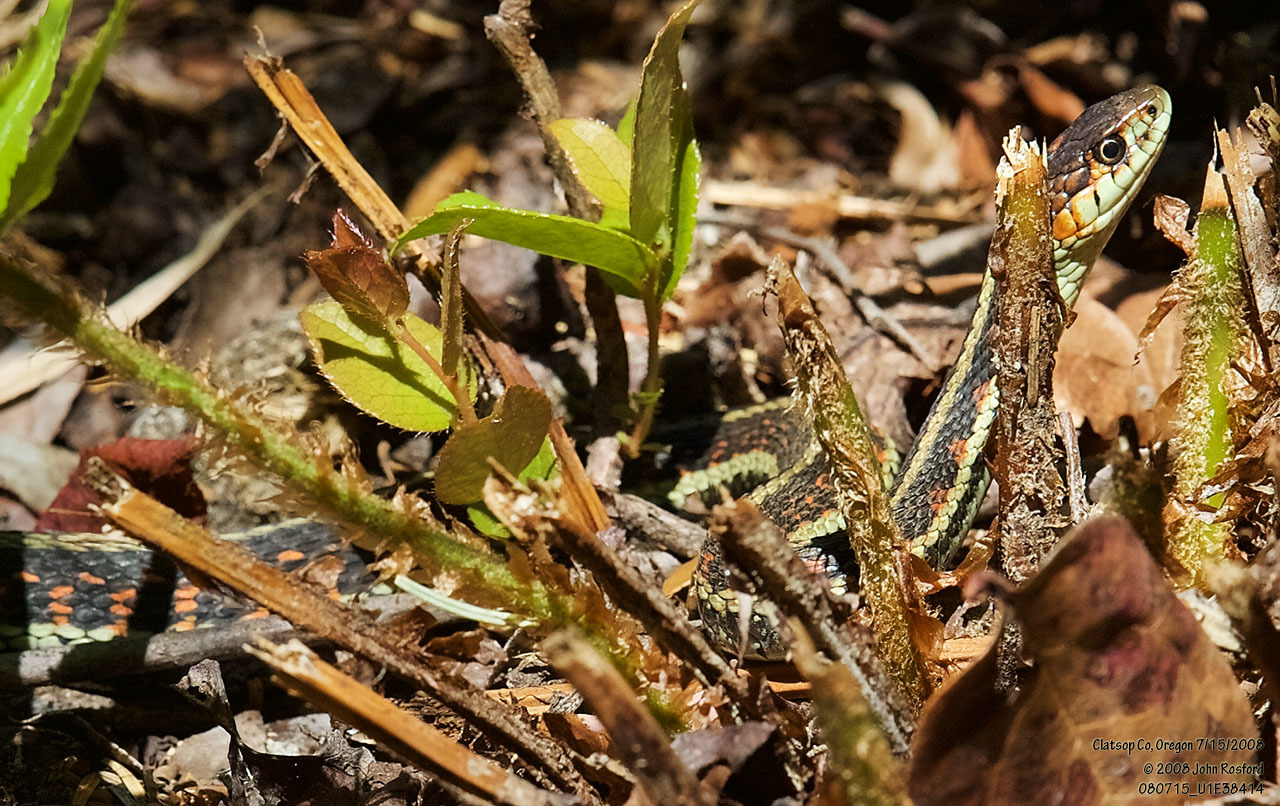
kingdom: Animalia
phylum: Chordata
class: Squamata
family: Colubridae
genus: Thamnophis
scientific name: Thamnophis sirtalis
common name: Common garter snake
